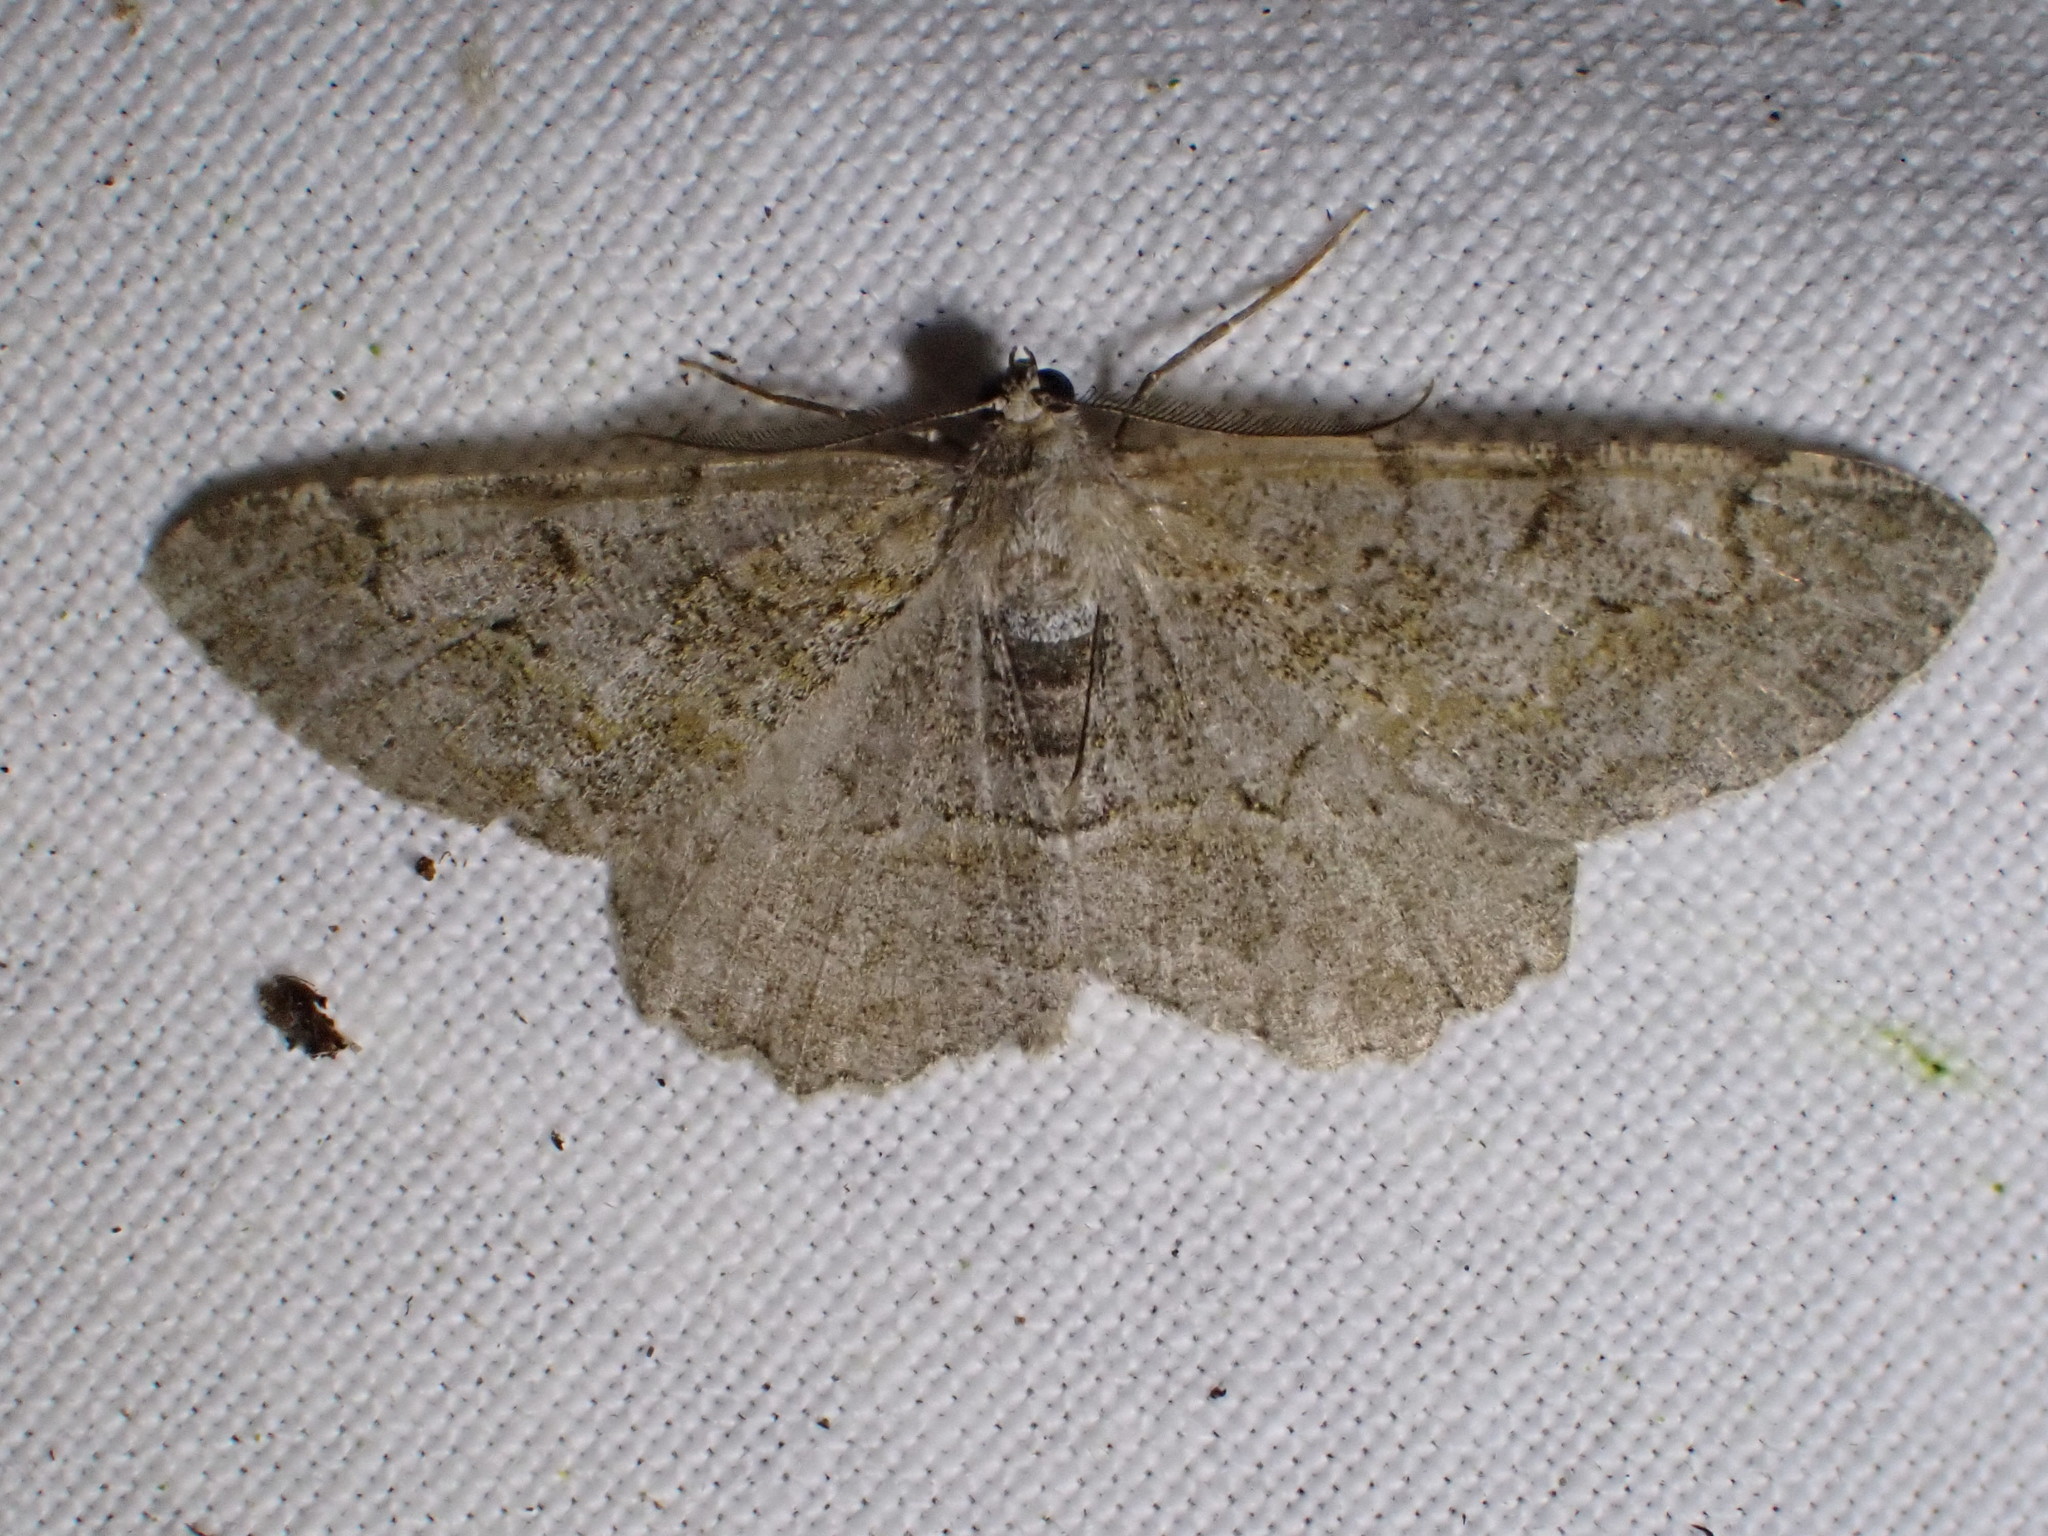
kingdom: Animalia
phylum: Arthropoda
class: Insecta
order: Lepidoptera
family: Geometridae
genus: Alcis
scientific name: Alcis repandata
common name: Mottled beauty
